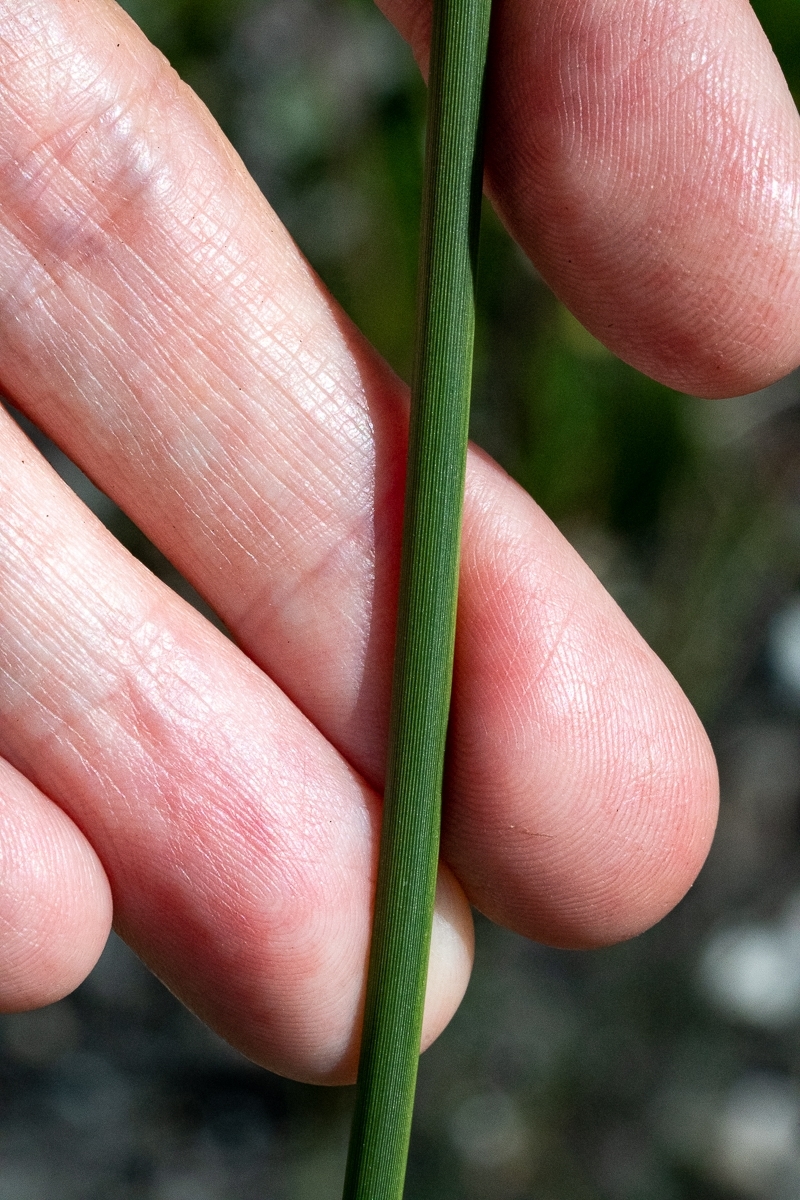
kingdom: Plantae
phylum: Tracheophyta
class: Liliopsida
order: Asparagales
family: Iridaceae
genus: Bobartia
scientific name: Bobartia indica
